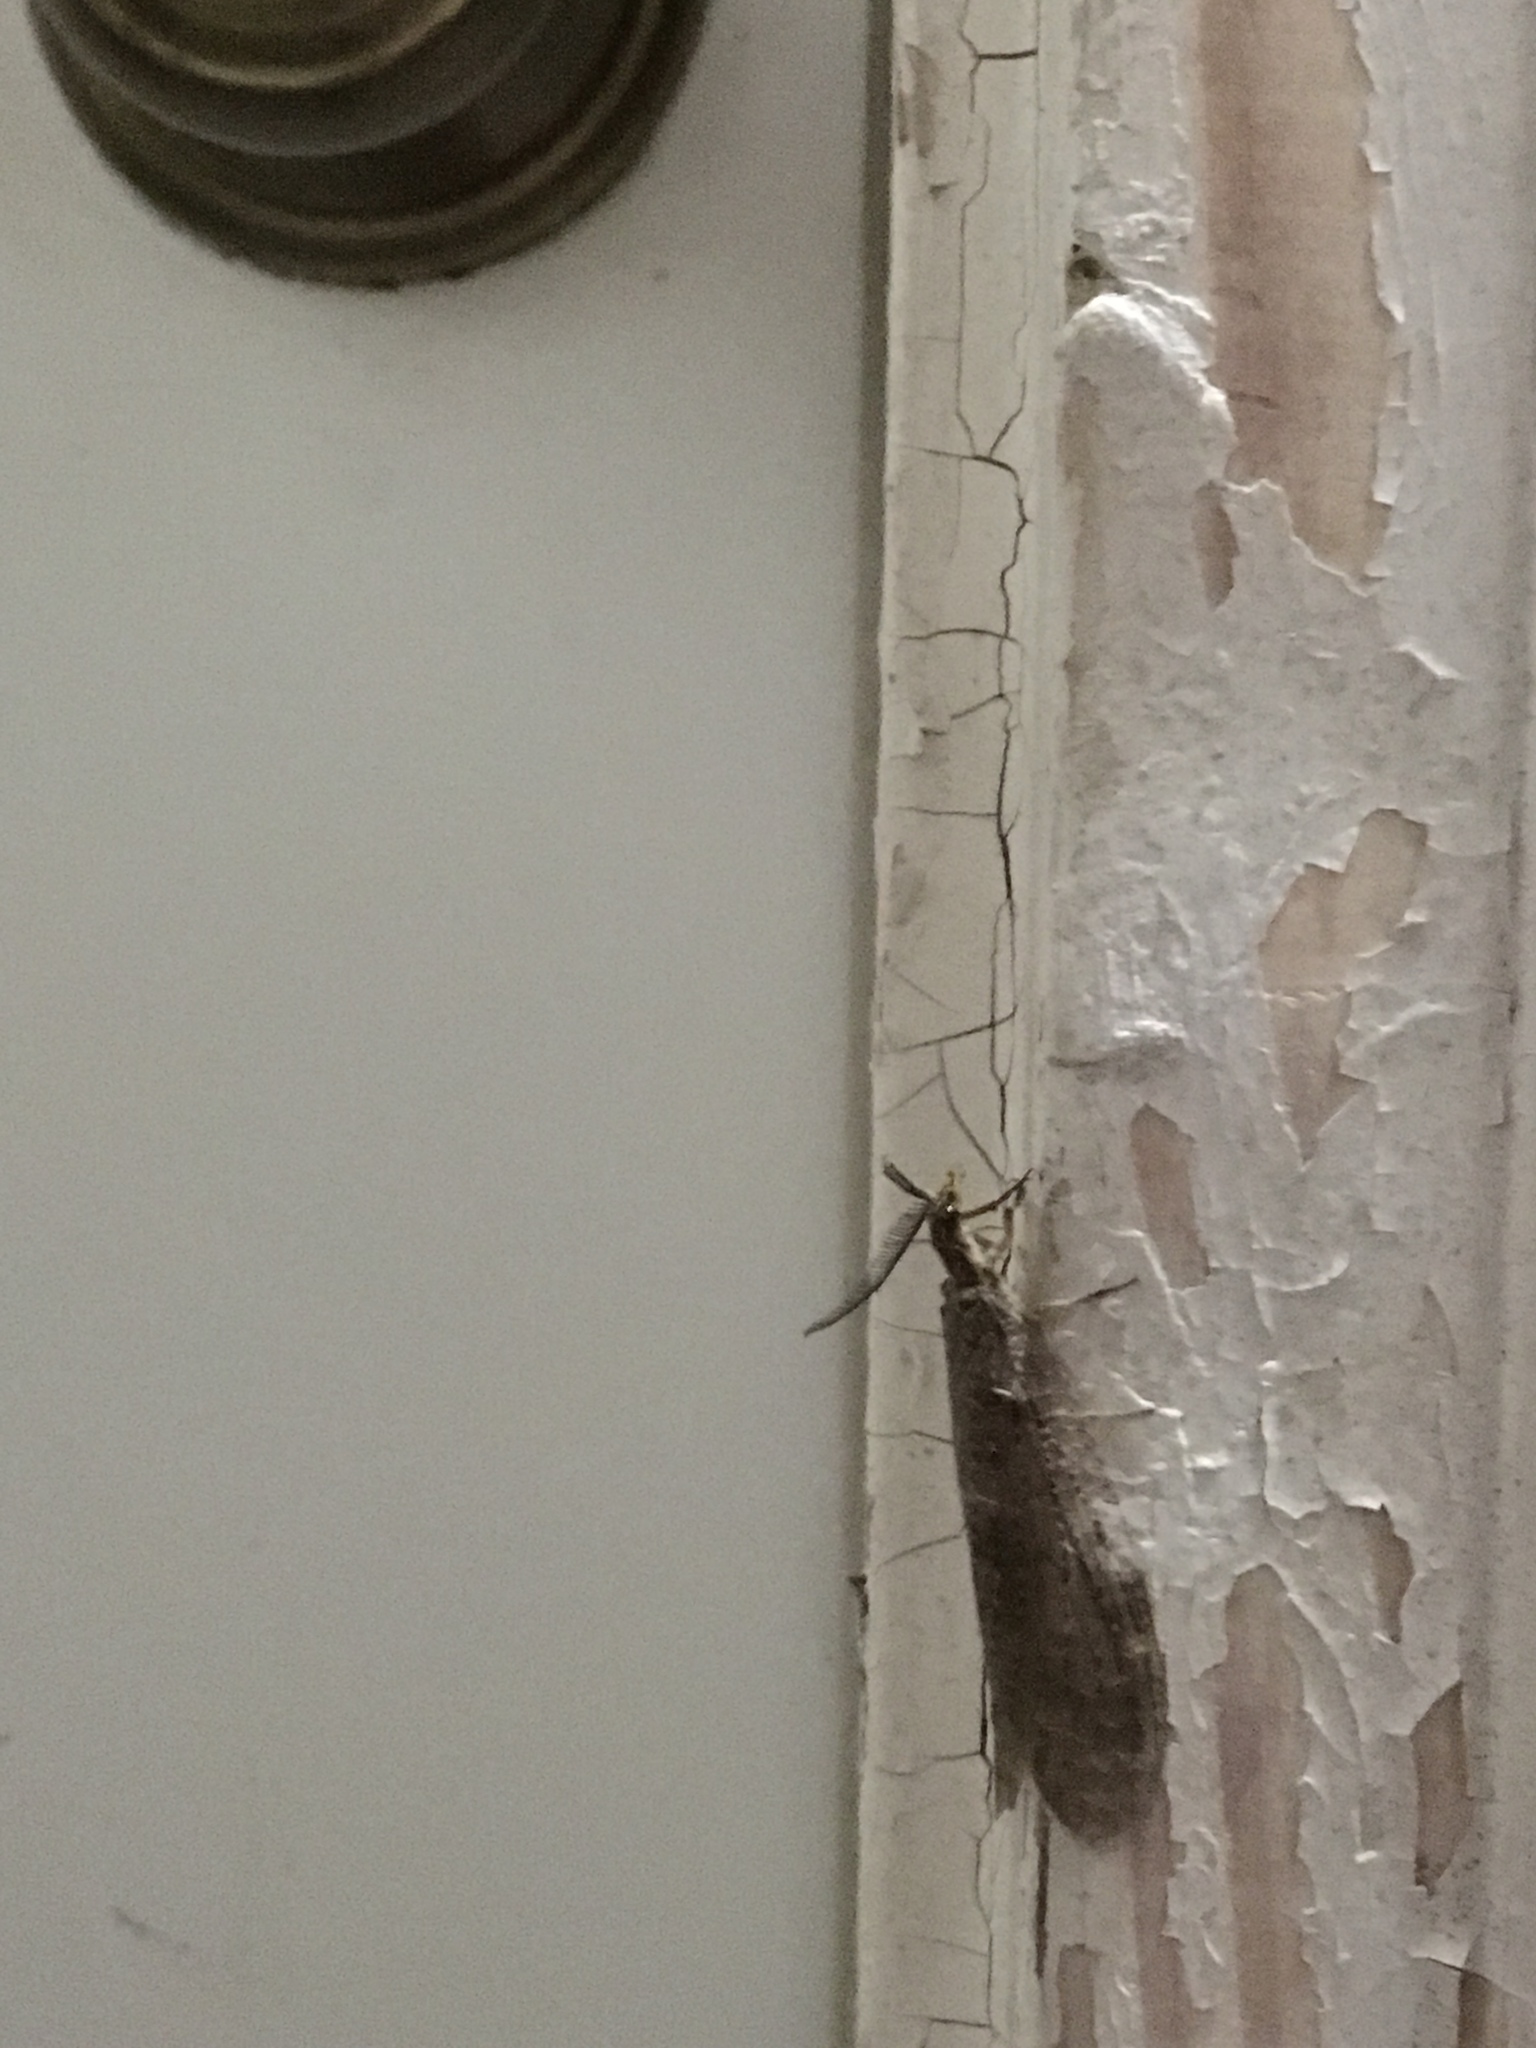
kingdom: Animalia
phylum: Arthropoda
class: Insecta
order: Megaloptera
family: Corydalidae
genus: Chauliodes
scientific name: Chauliodes rastricornis
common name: Spring fishfly
